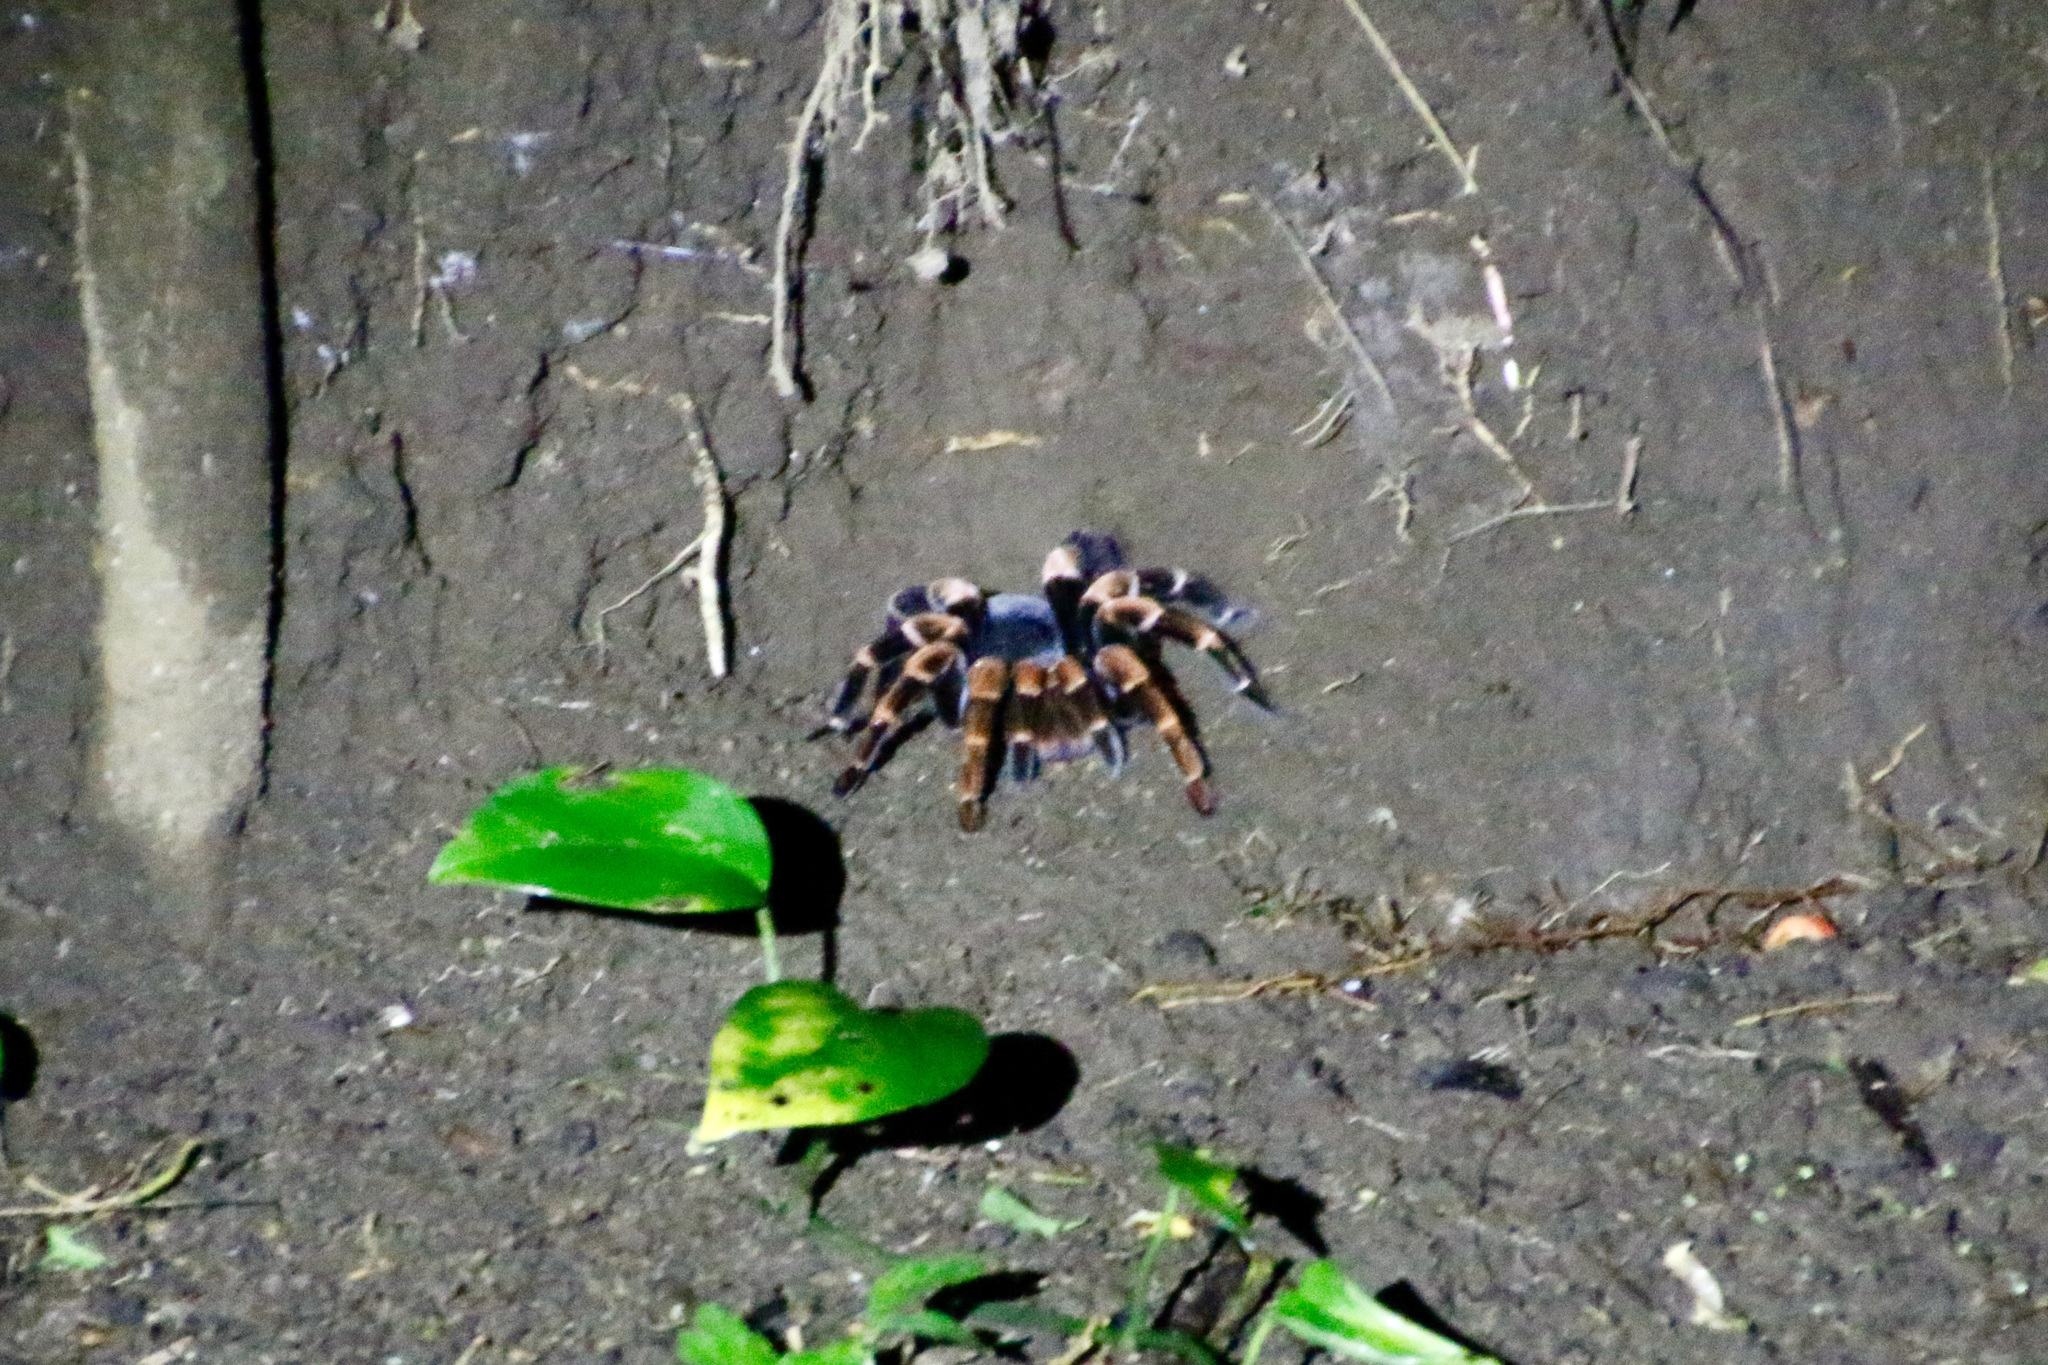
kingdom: Animalia
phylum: Arthropoda
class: Arachnida
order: Araneae
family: Theraphosidae
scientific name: Theraphosidae
